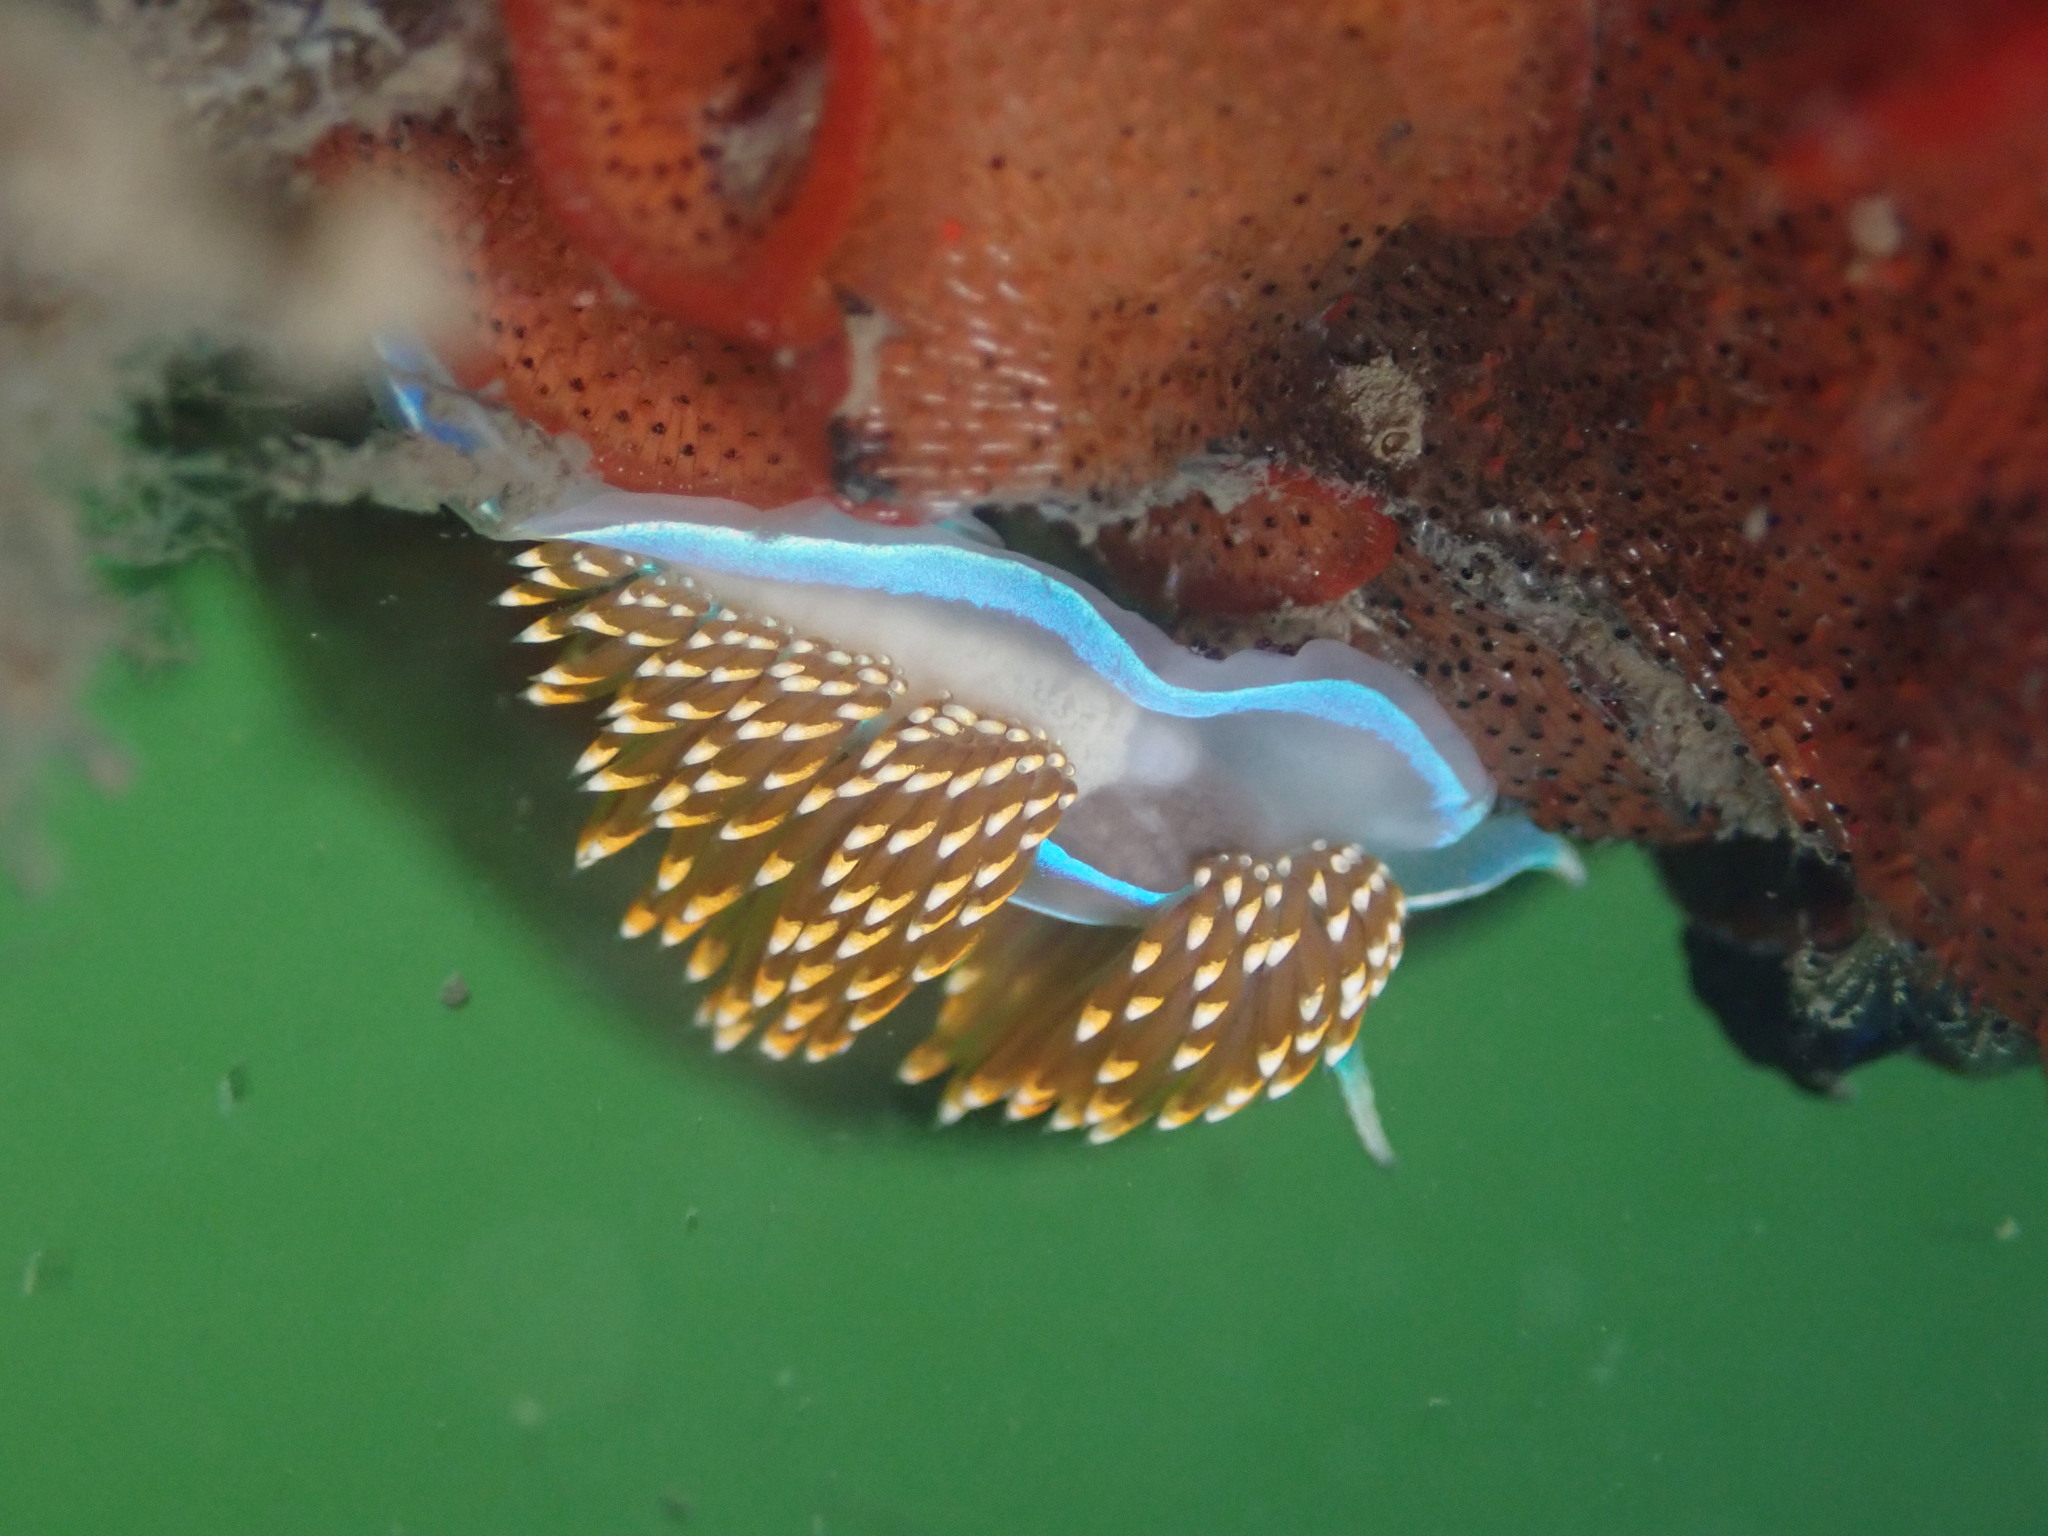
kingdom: Animalia
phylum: Mollusca
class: Gastropoda
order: Nudibranchia
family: Myrrhinidae
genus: Hermissenda
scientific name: Hermissenda opalescens
